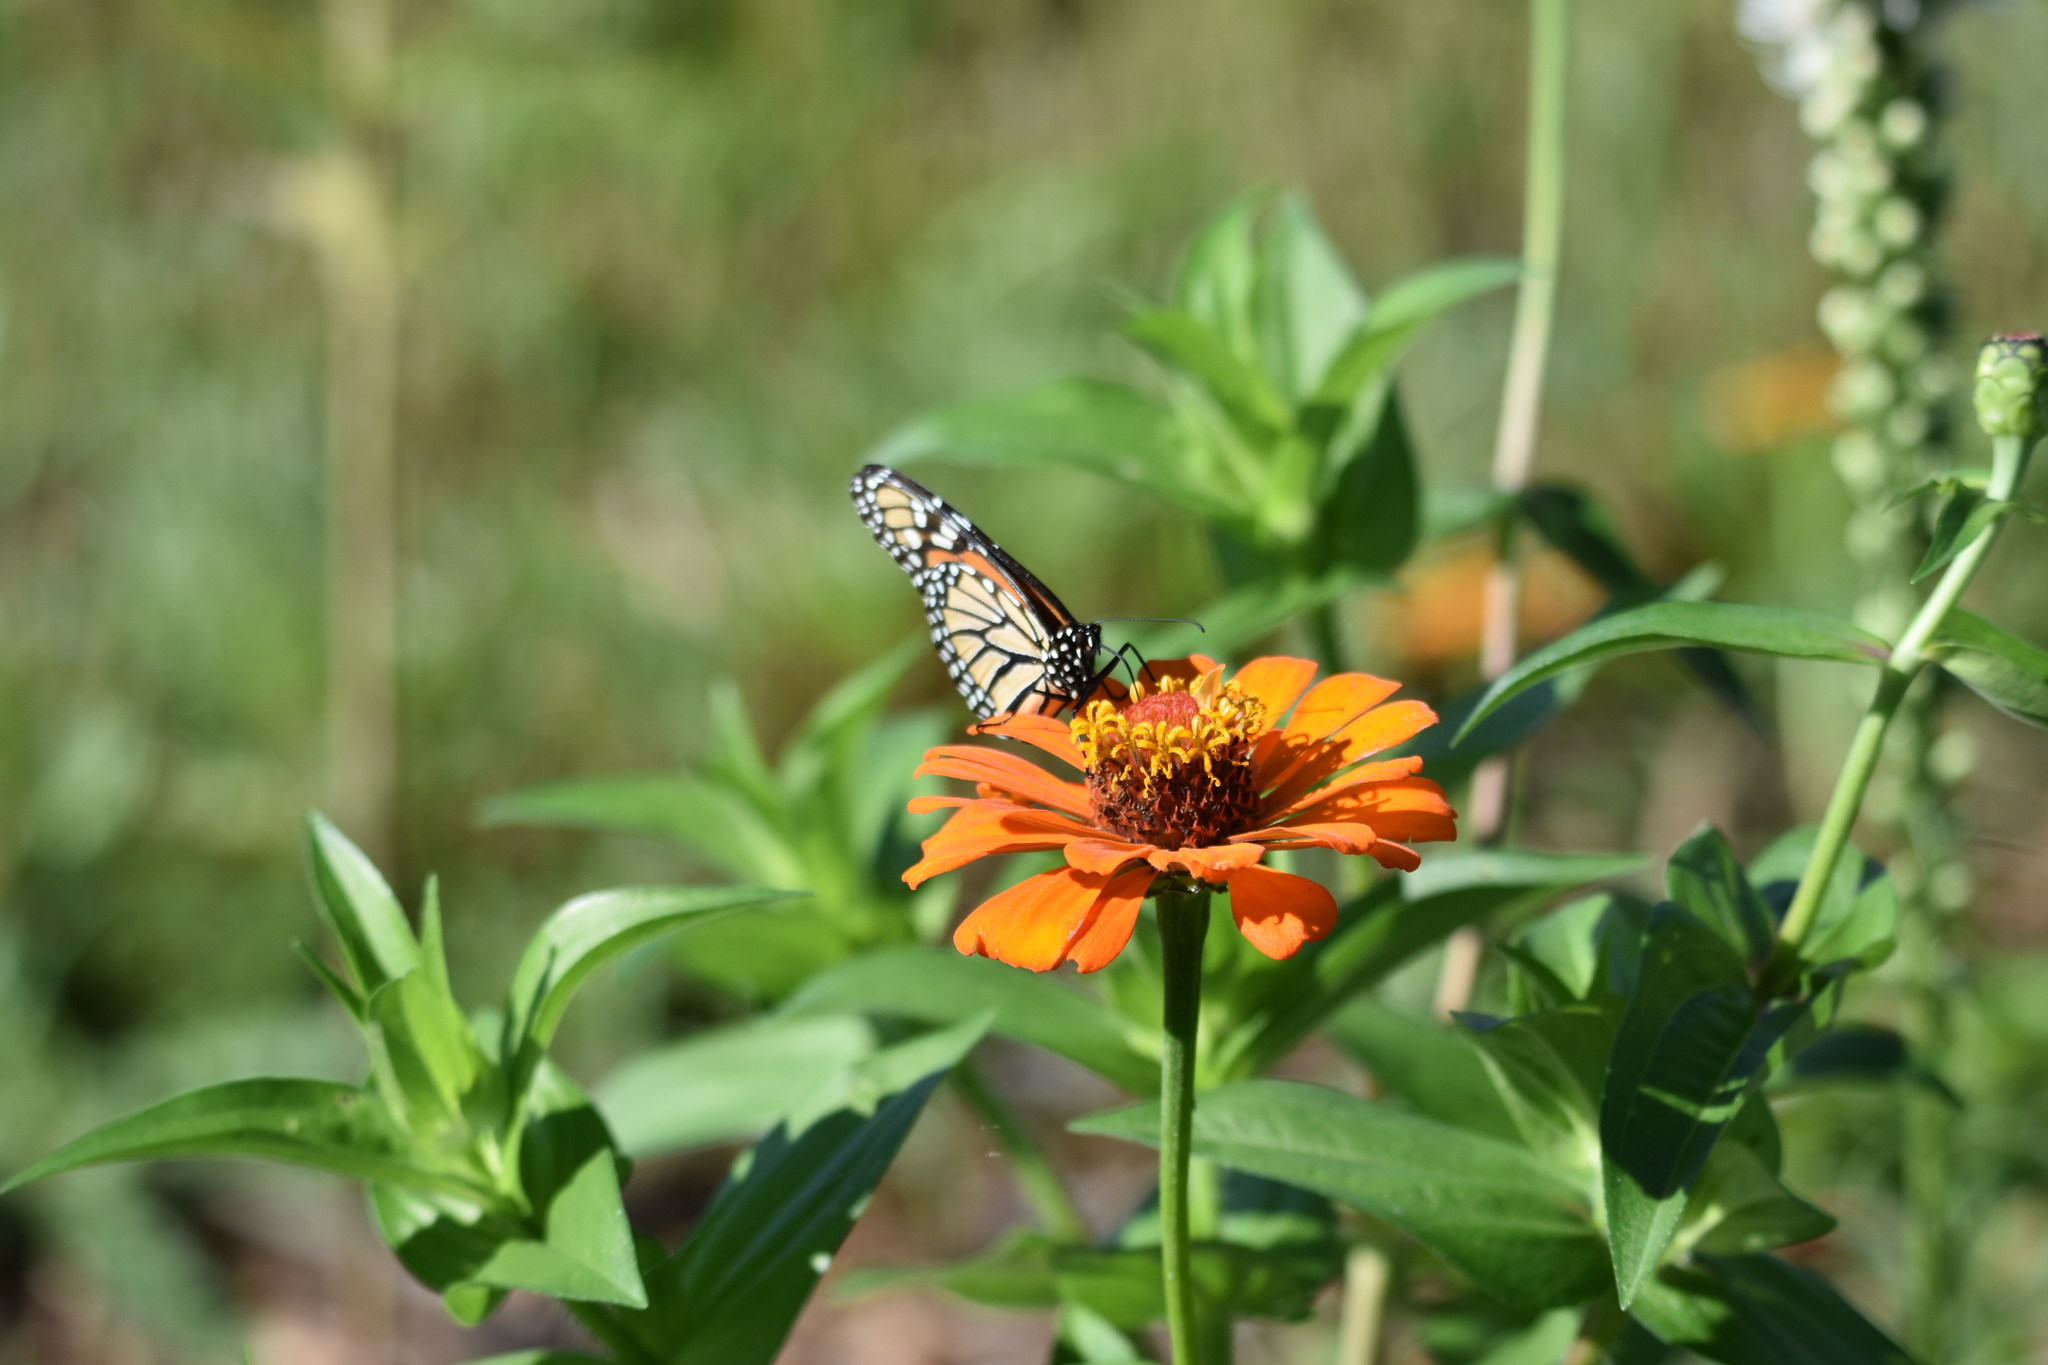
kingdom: Animalia
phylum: Arthropoda
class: Insecta
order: Lepidoptera
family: Nymphalidae
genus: Danaus
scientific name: Danaus plexippus
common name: Monarch
